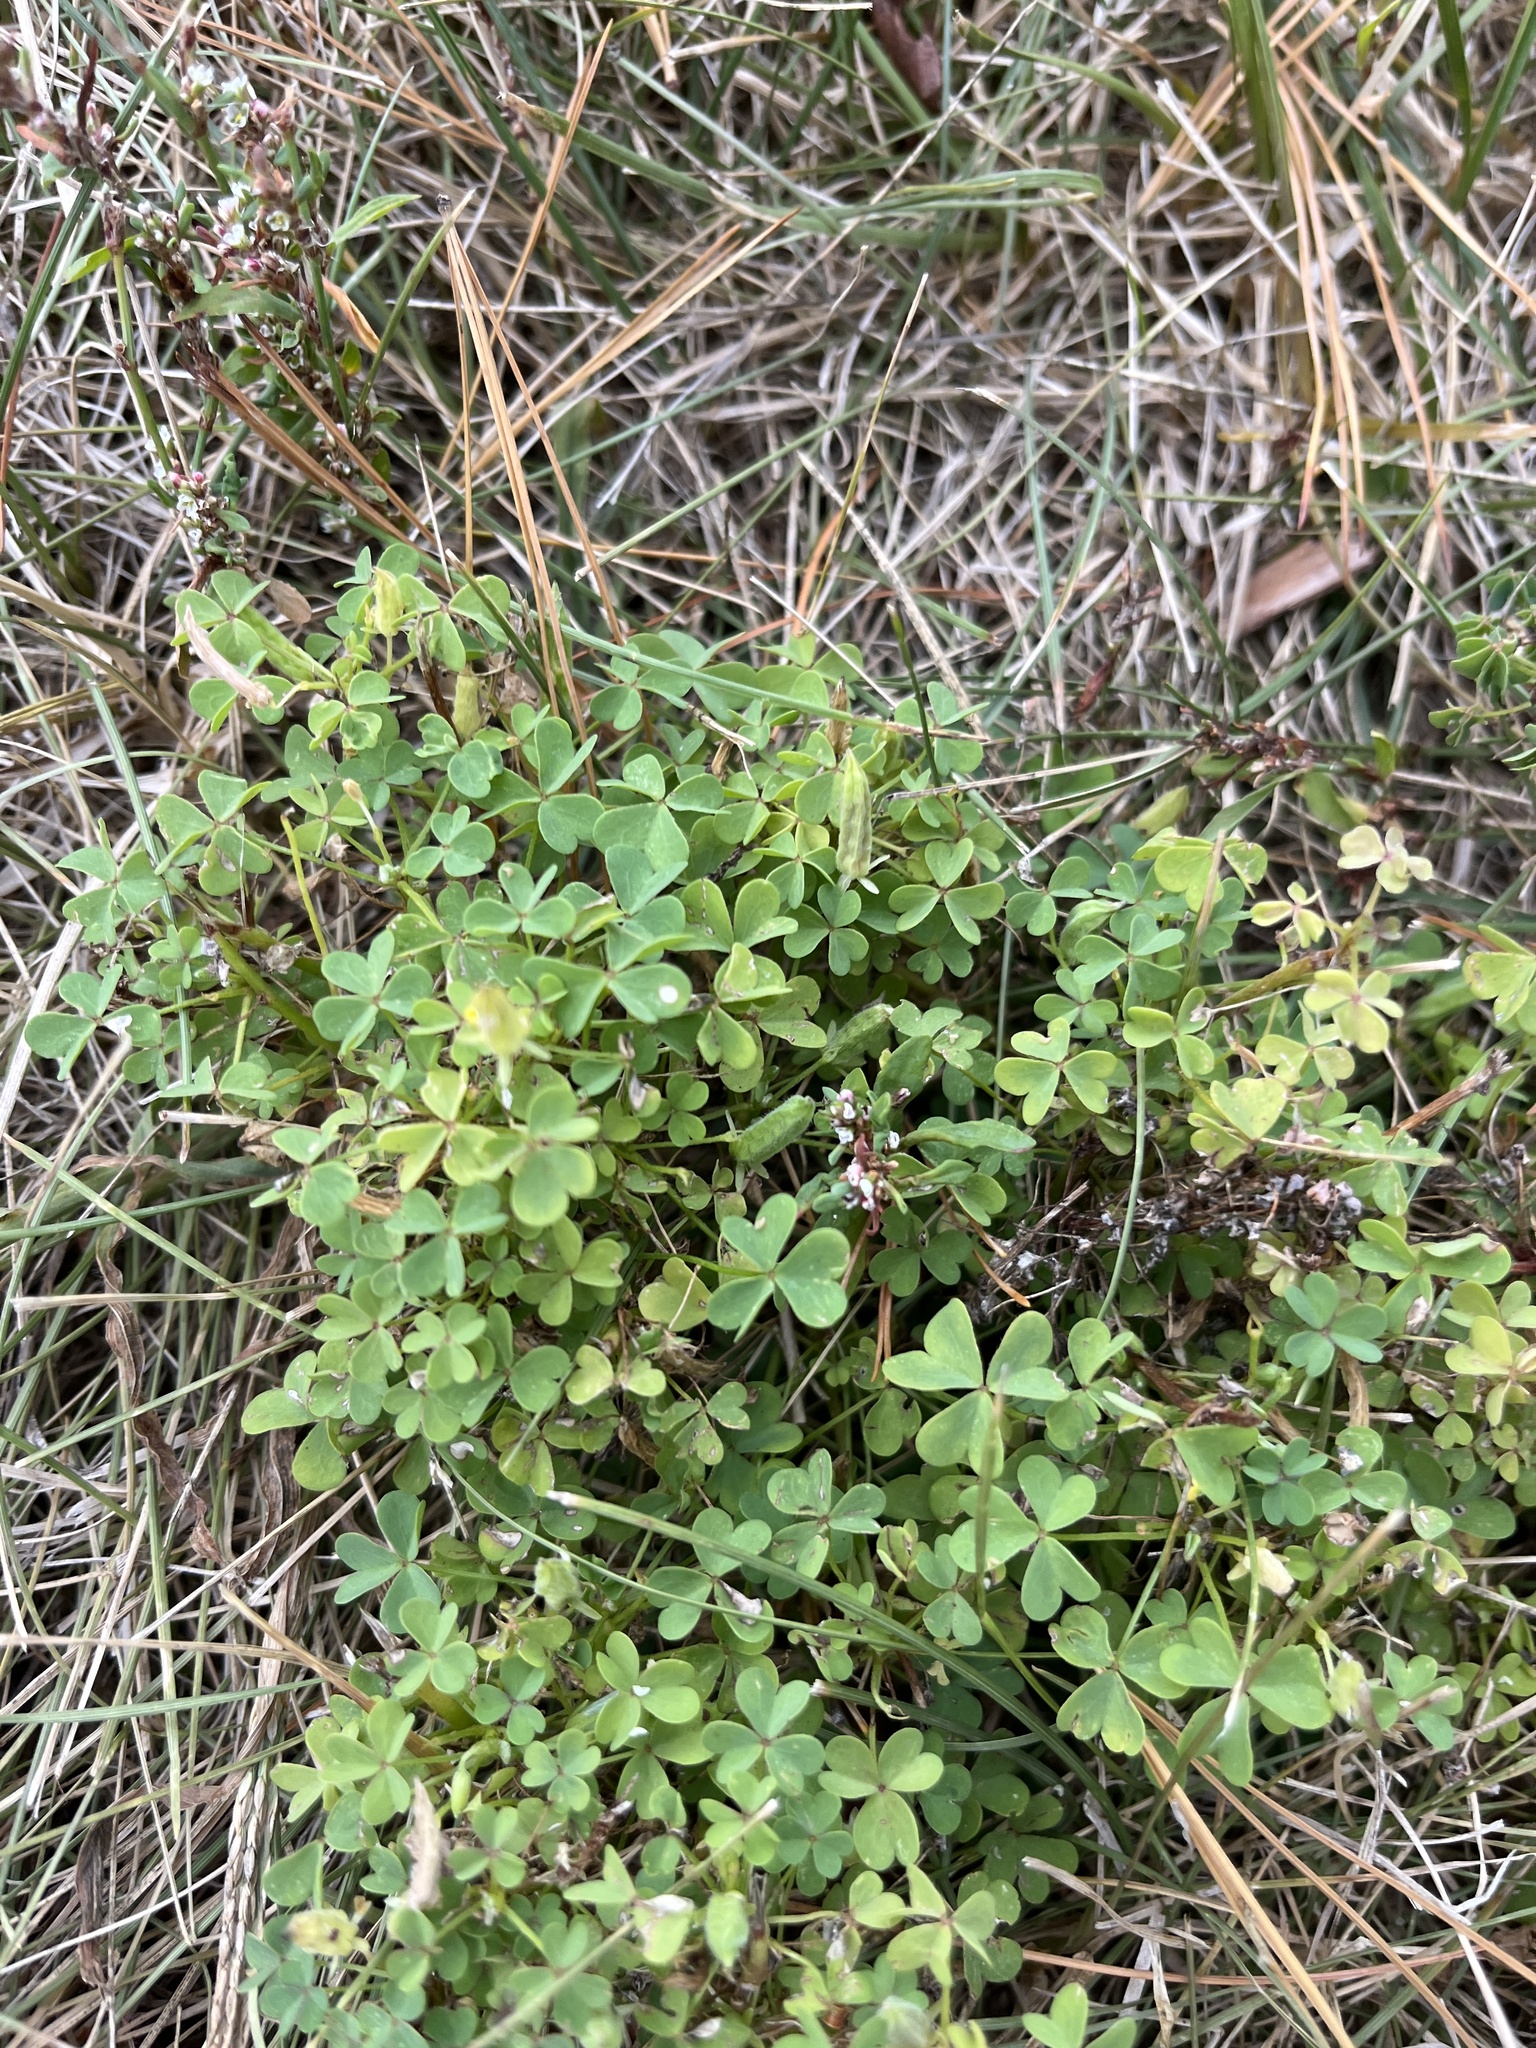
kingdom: Plantae
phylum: Tracheophyta
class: Magnoliopsida
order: Oxalidales
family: Oxalidaceae
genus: Oxalis
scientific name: Oxalis dillenii
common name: Sussex yellow-sorrel
